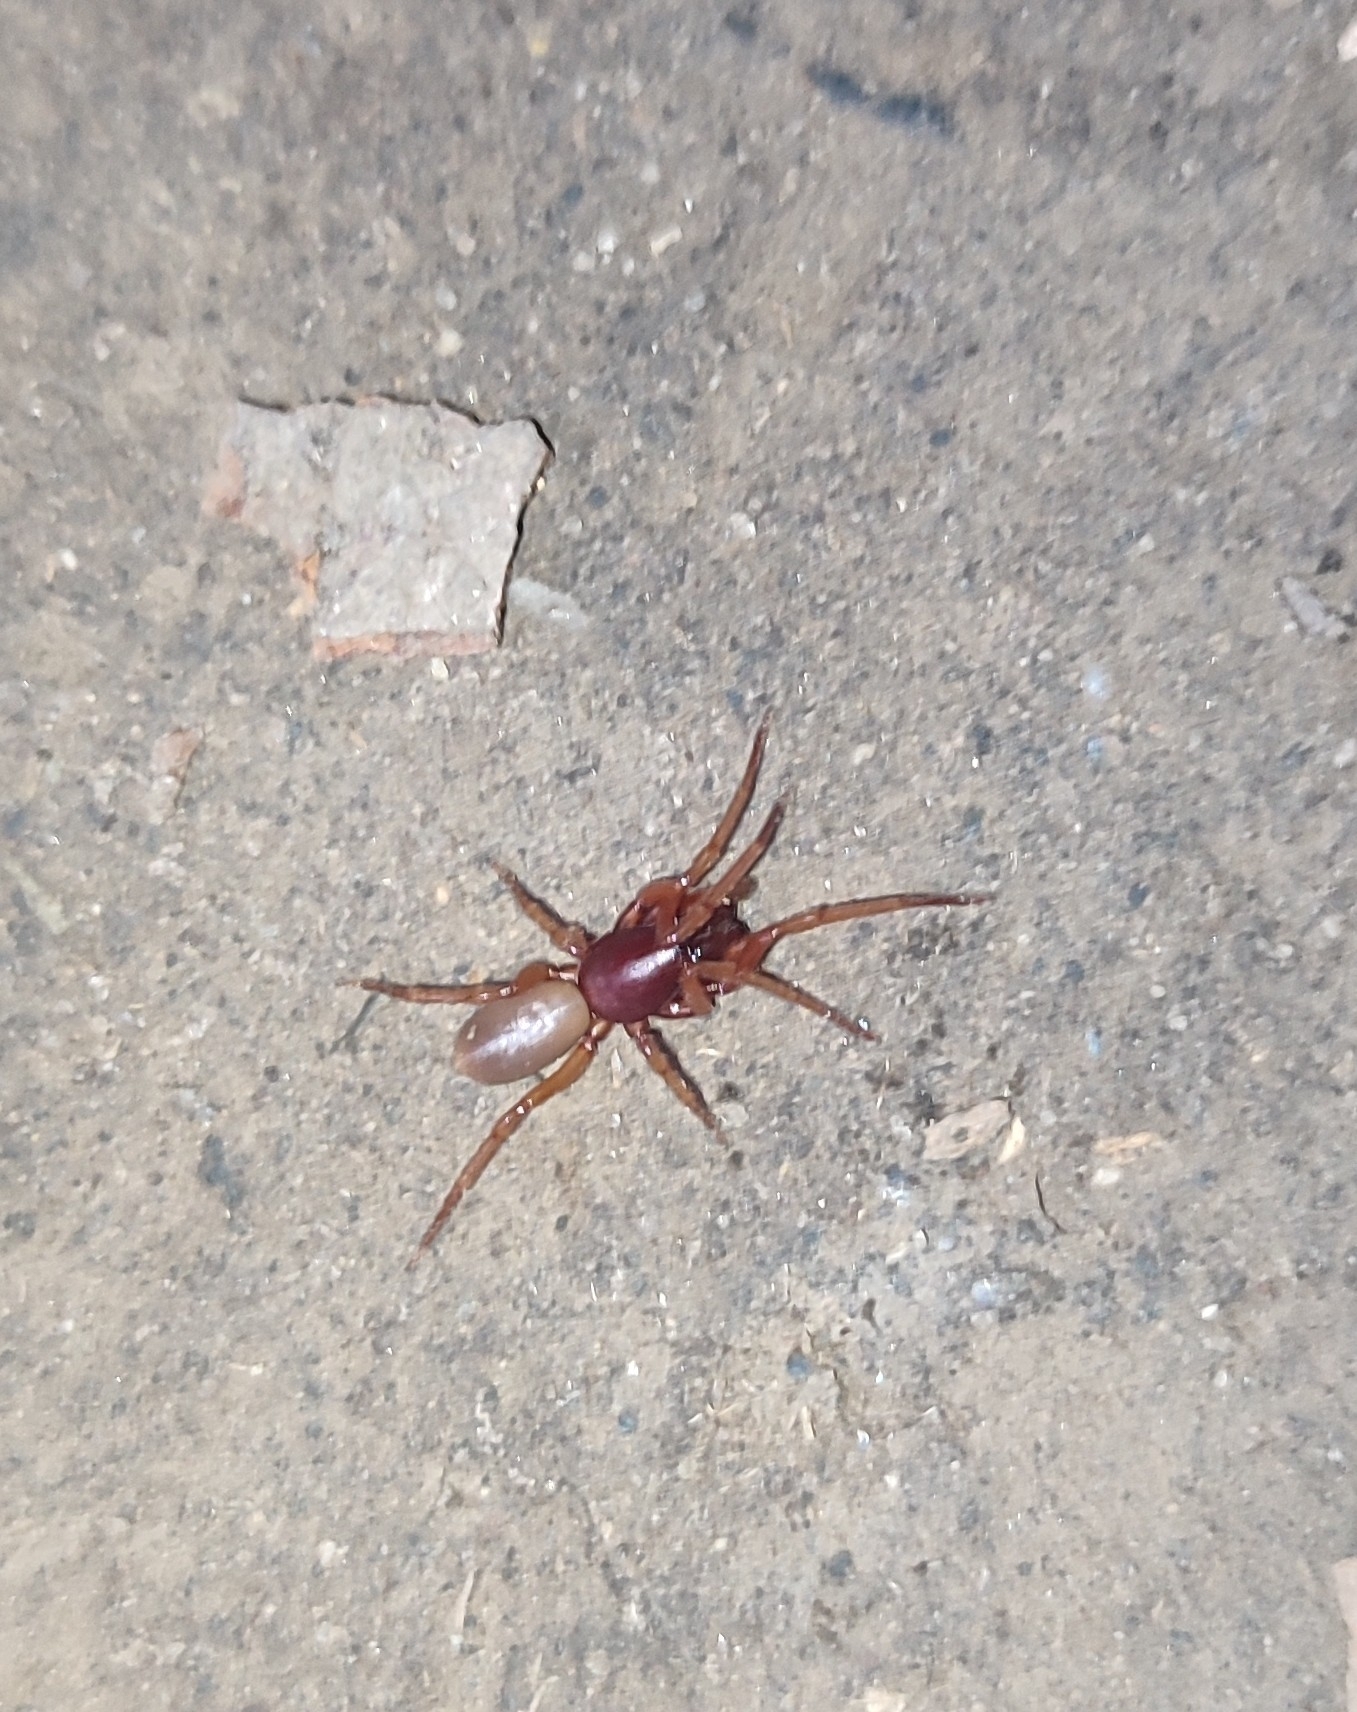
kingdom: Animalia
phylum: Arthropoda
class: Arachnida
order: Araneae
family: Dysderidae
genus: Dysdera
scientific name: Dysdera crocata
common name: Woodlouse spider
